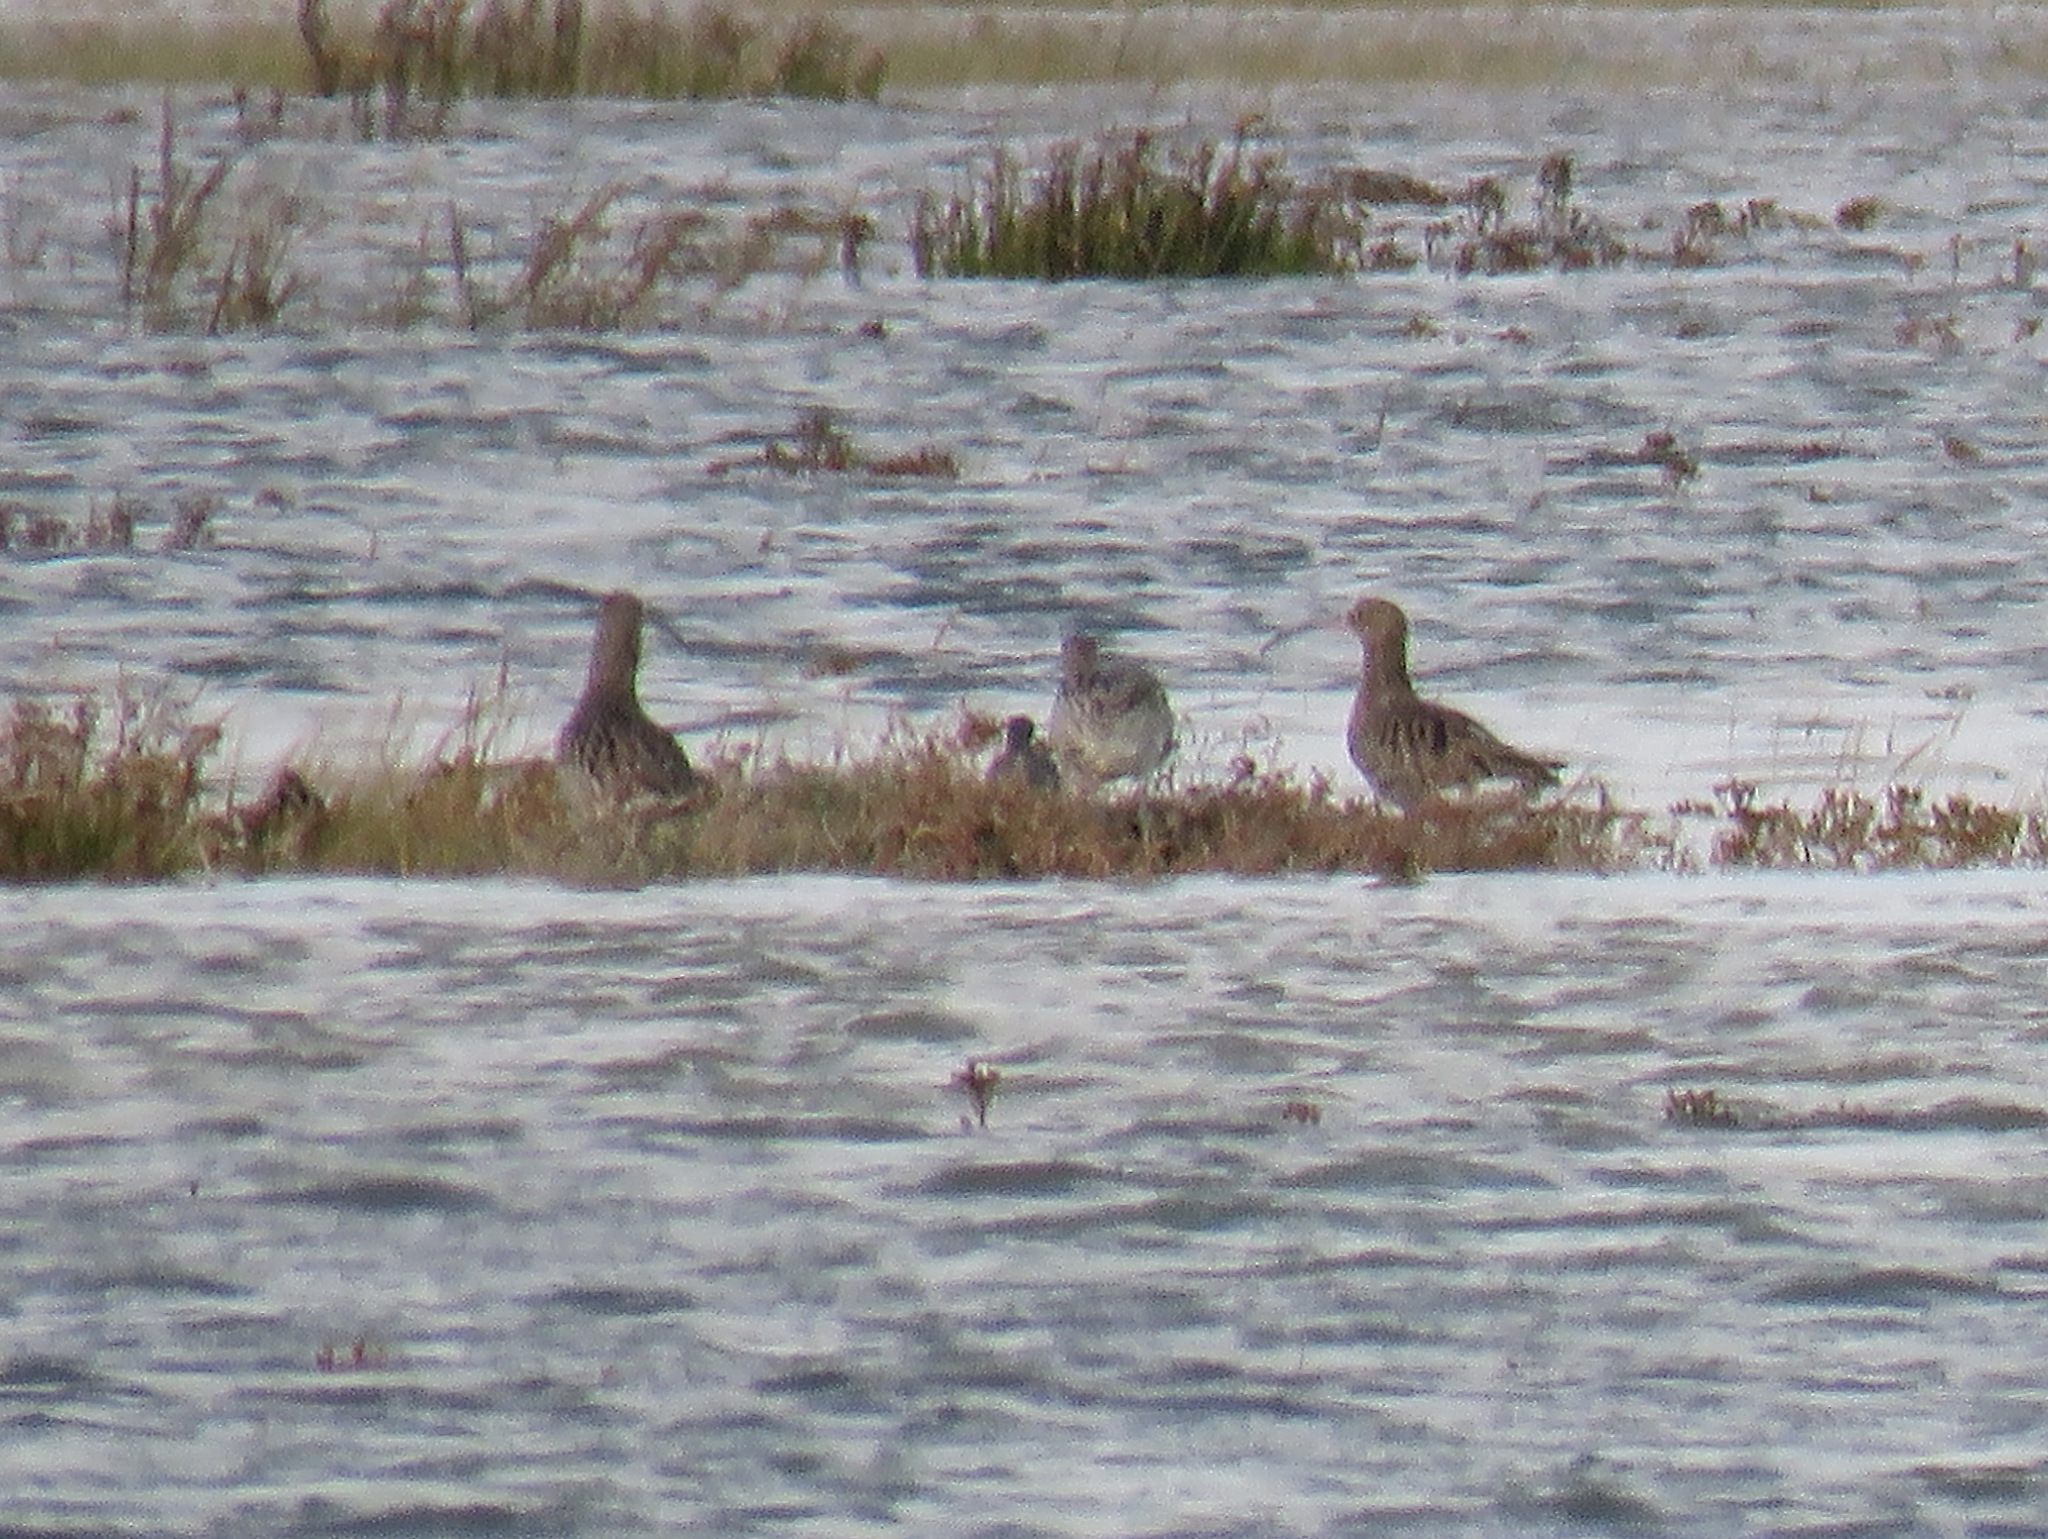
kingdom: Animalia
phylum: Chordata
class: Aves
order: Charadriiformes
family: Scolopacidae
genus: Numenius
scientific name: Numenius arquata
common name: Eurasian curlew
